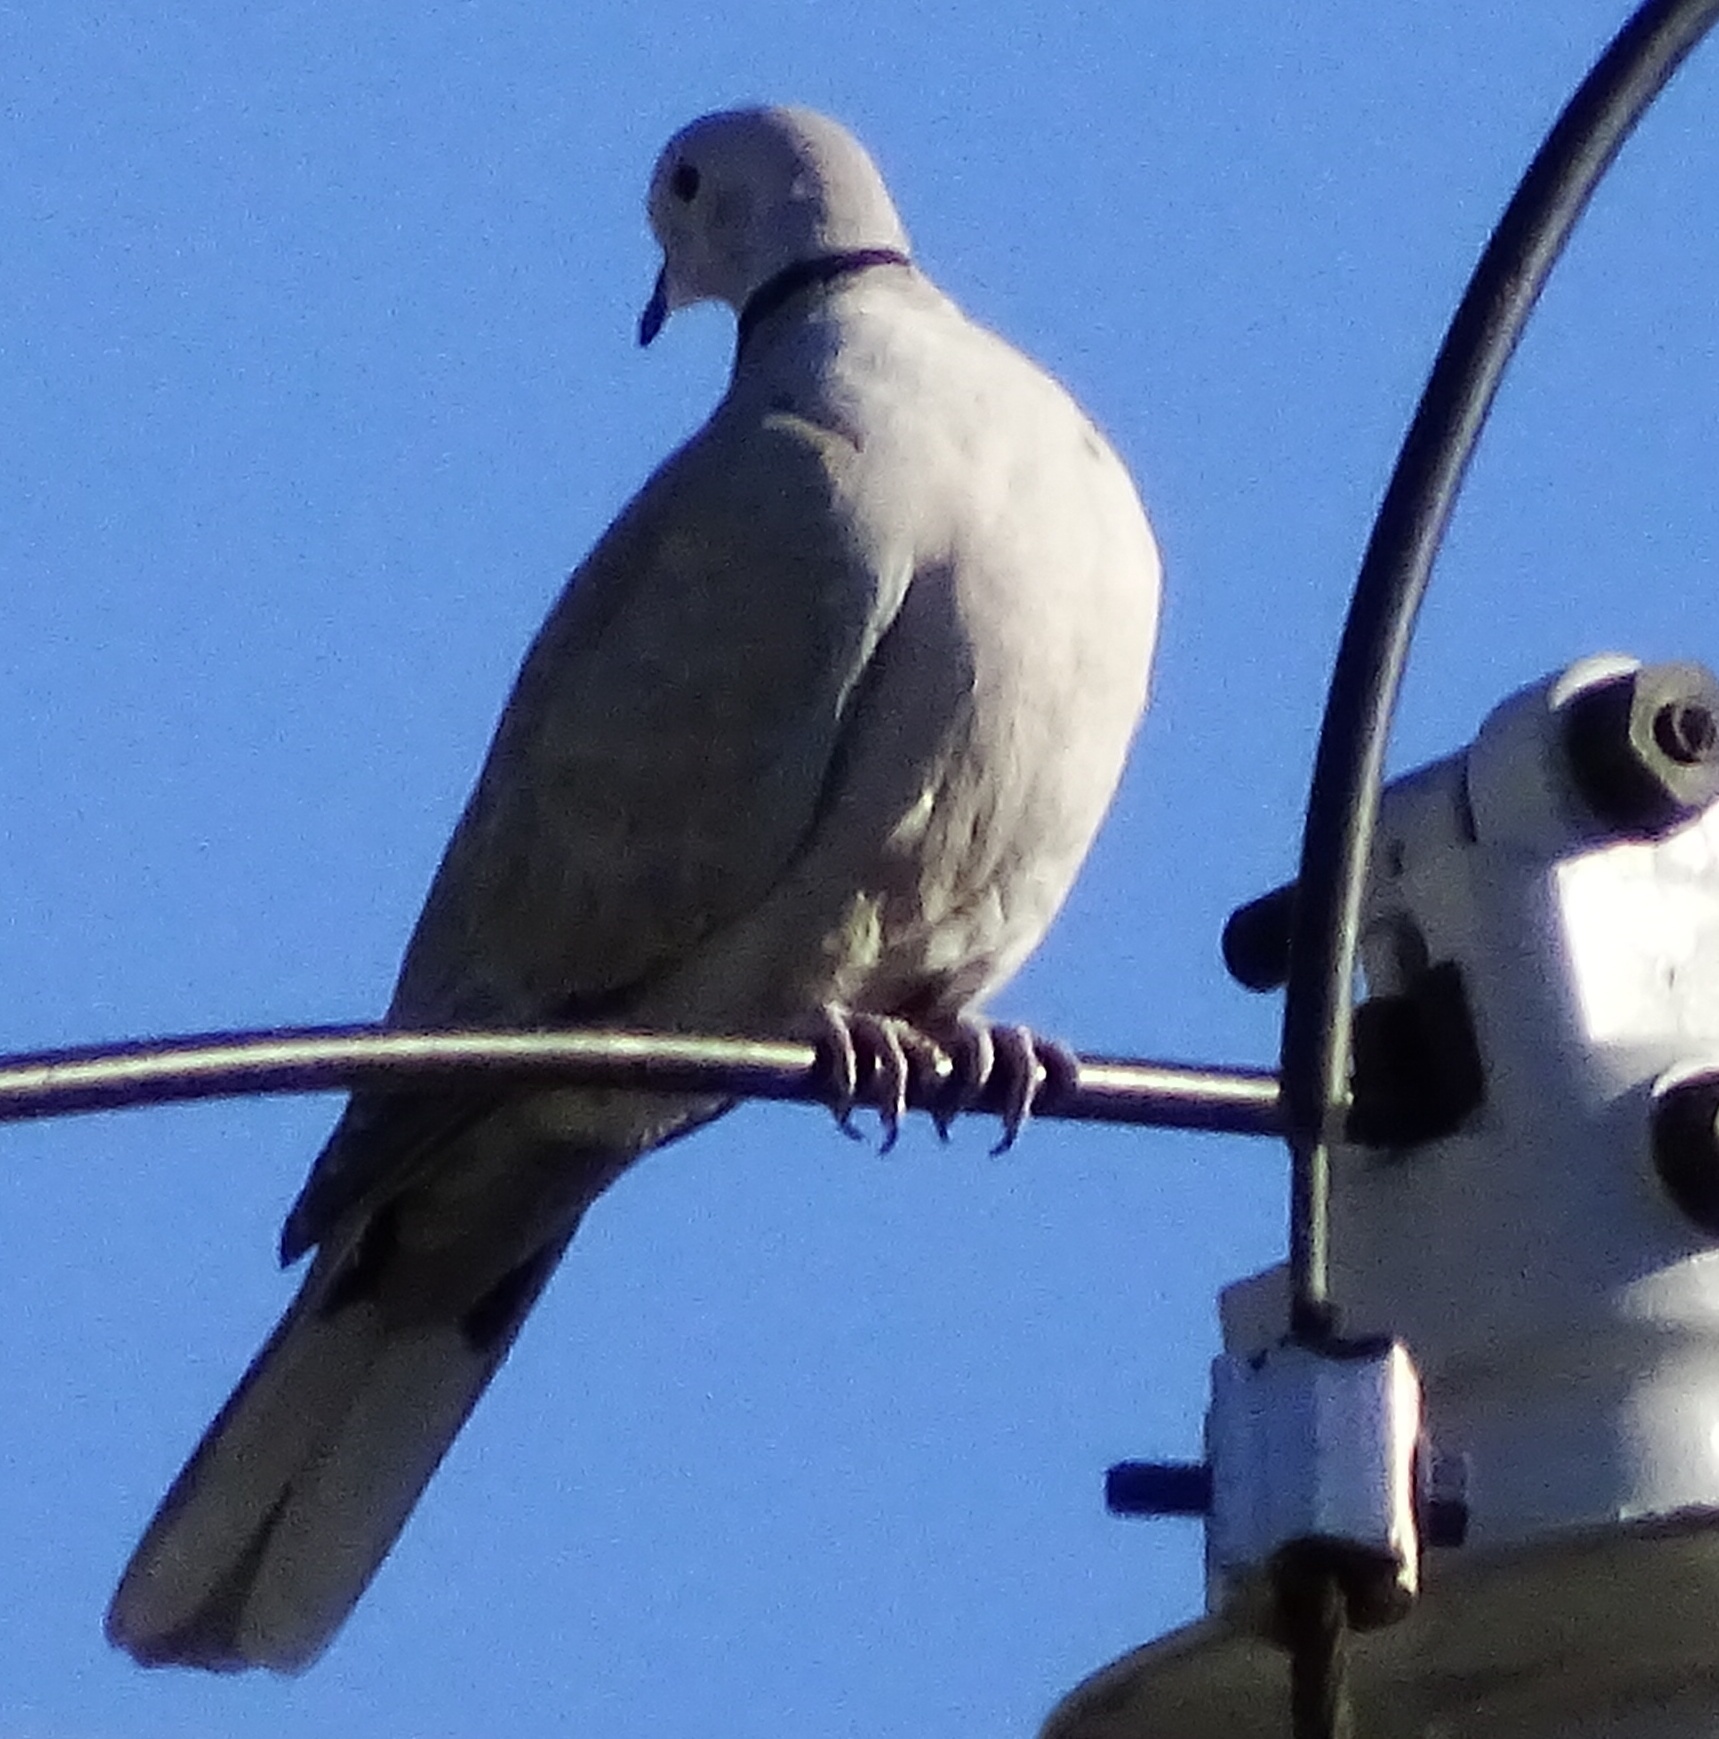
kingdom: Animalia
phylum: Chordata
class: Aves
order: Columbiformes
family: Columbidae
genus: Streptopelia
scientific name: Streptopelia decaocto
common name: Eurasian collared dove
